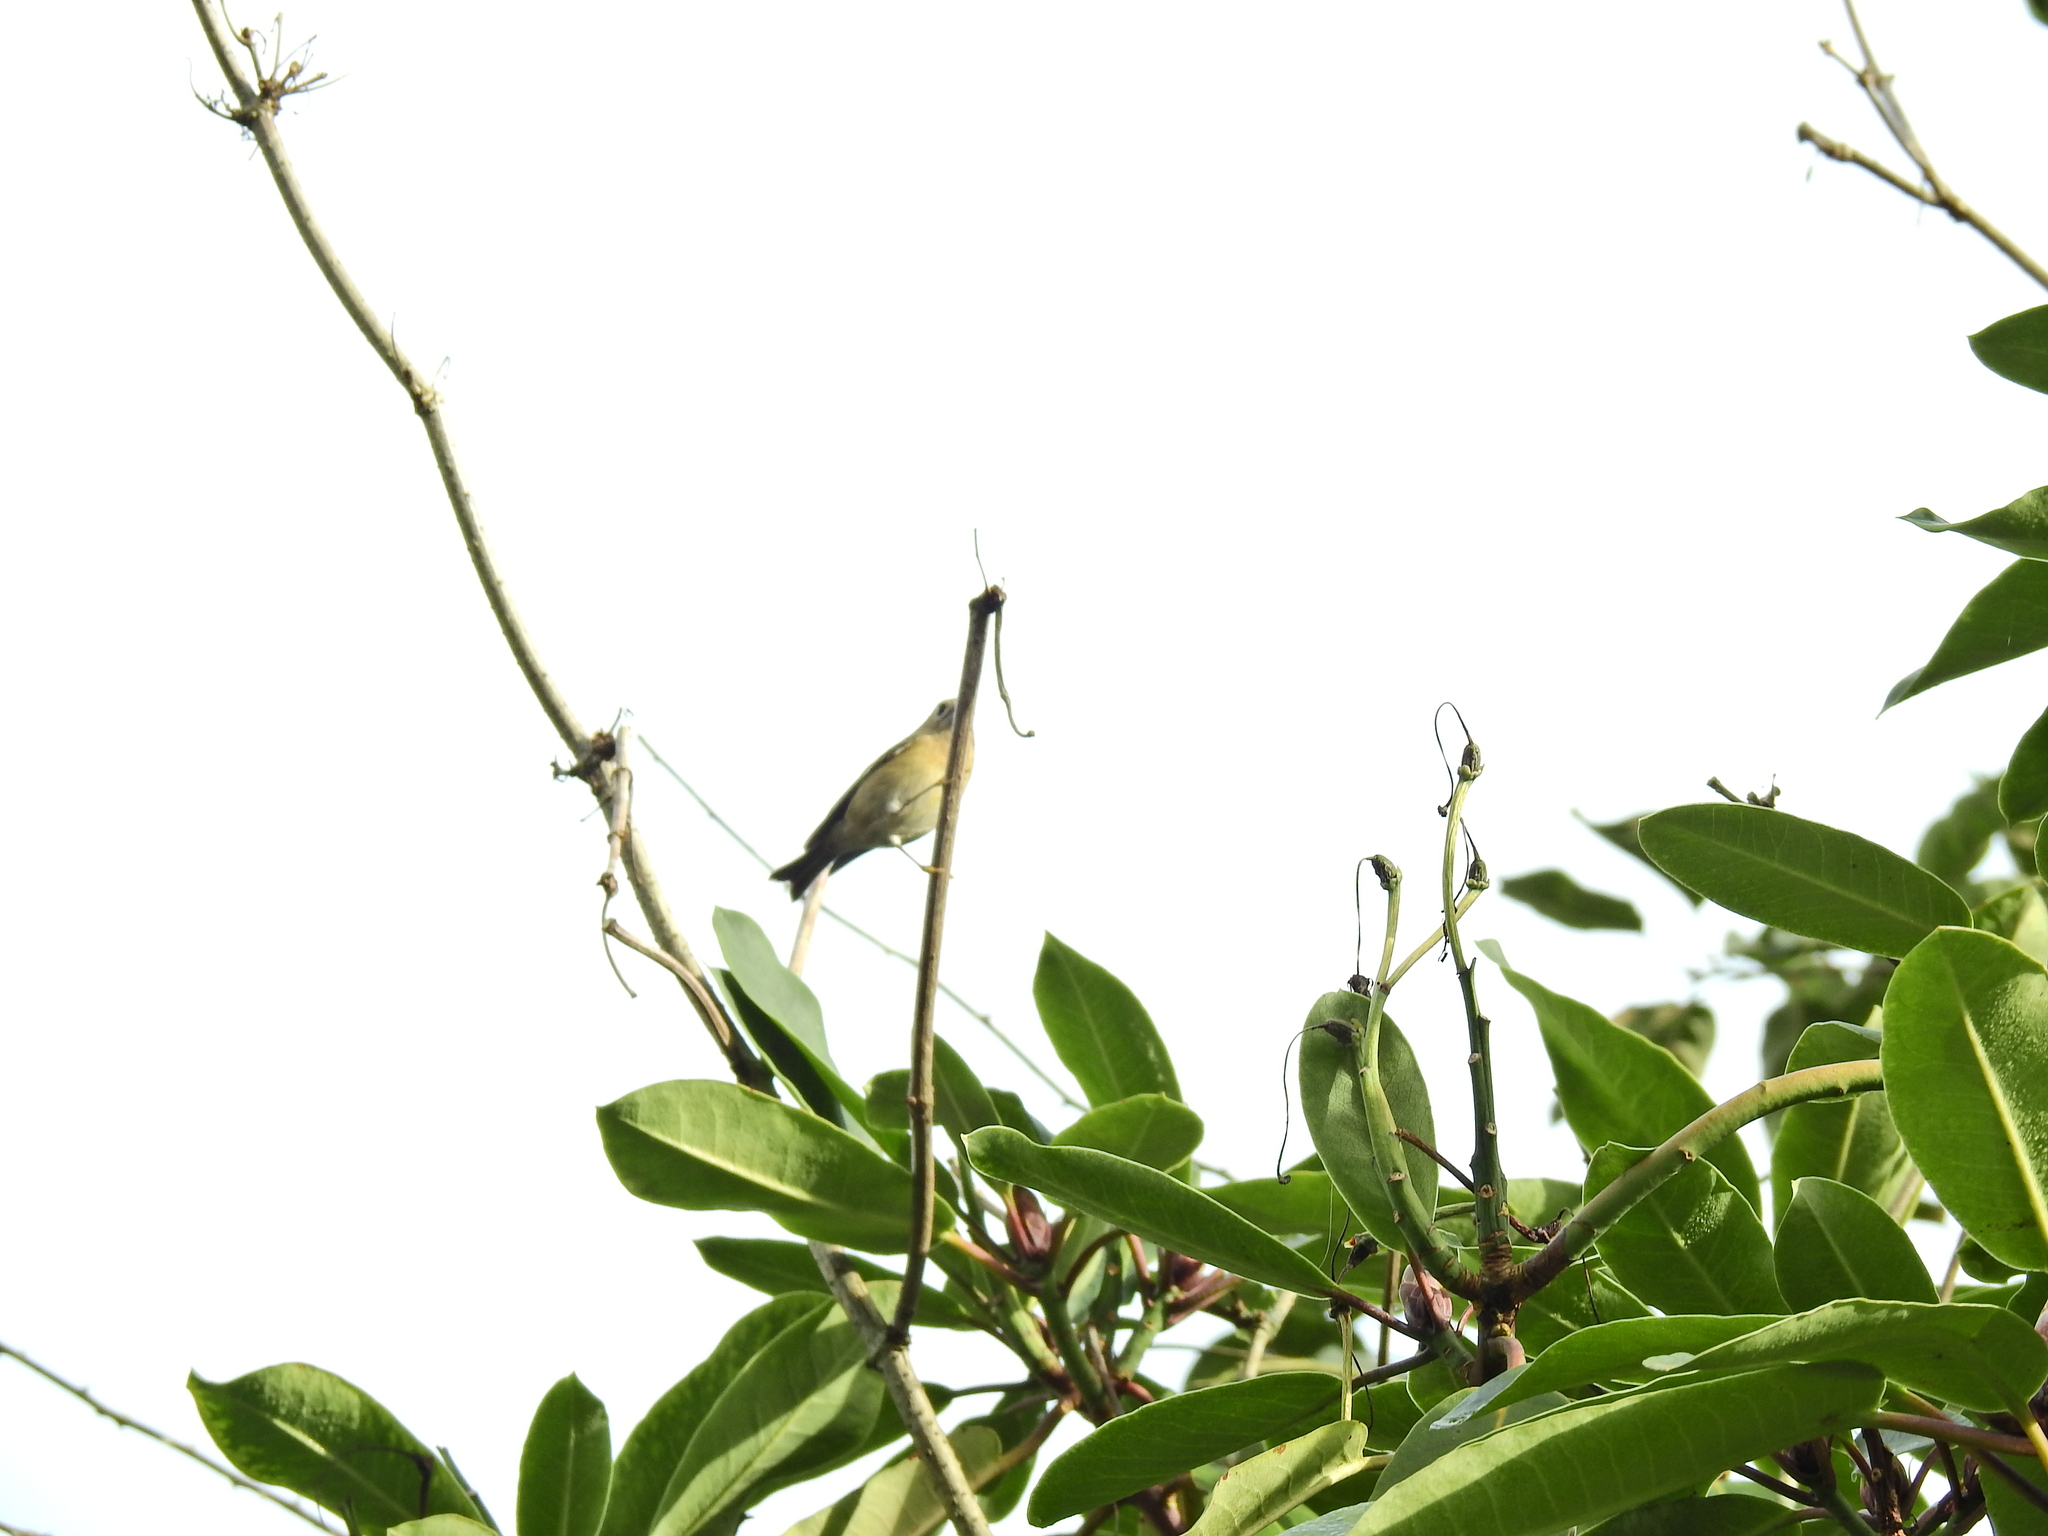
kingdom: Animalia
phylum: Chordata
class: Aves
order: Passeriformes
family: Regulidae
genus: Regulus
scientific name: Regulus regulus
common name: Goldcrest
